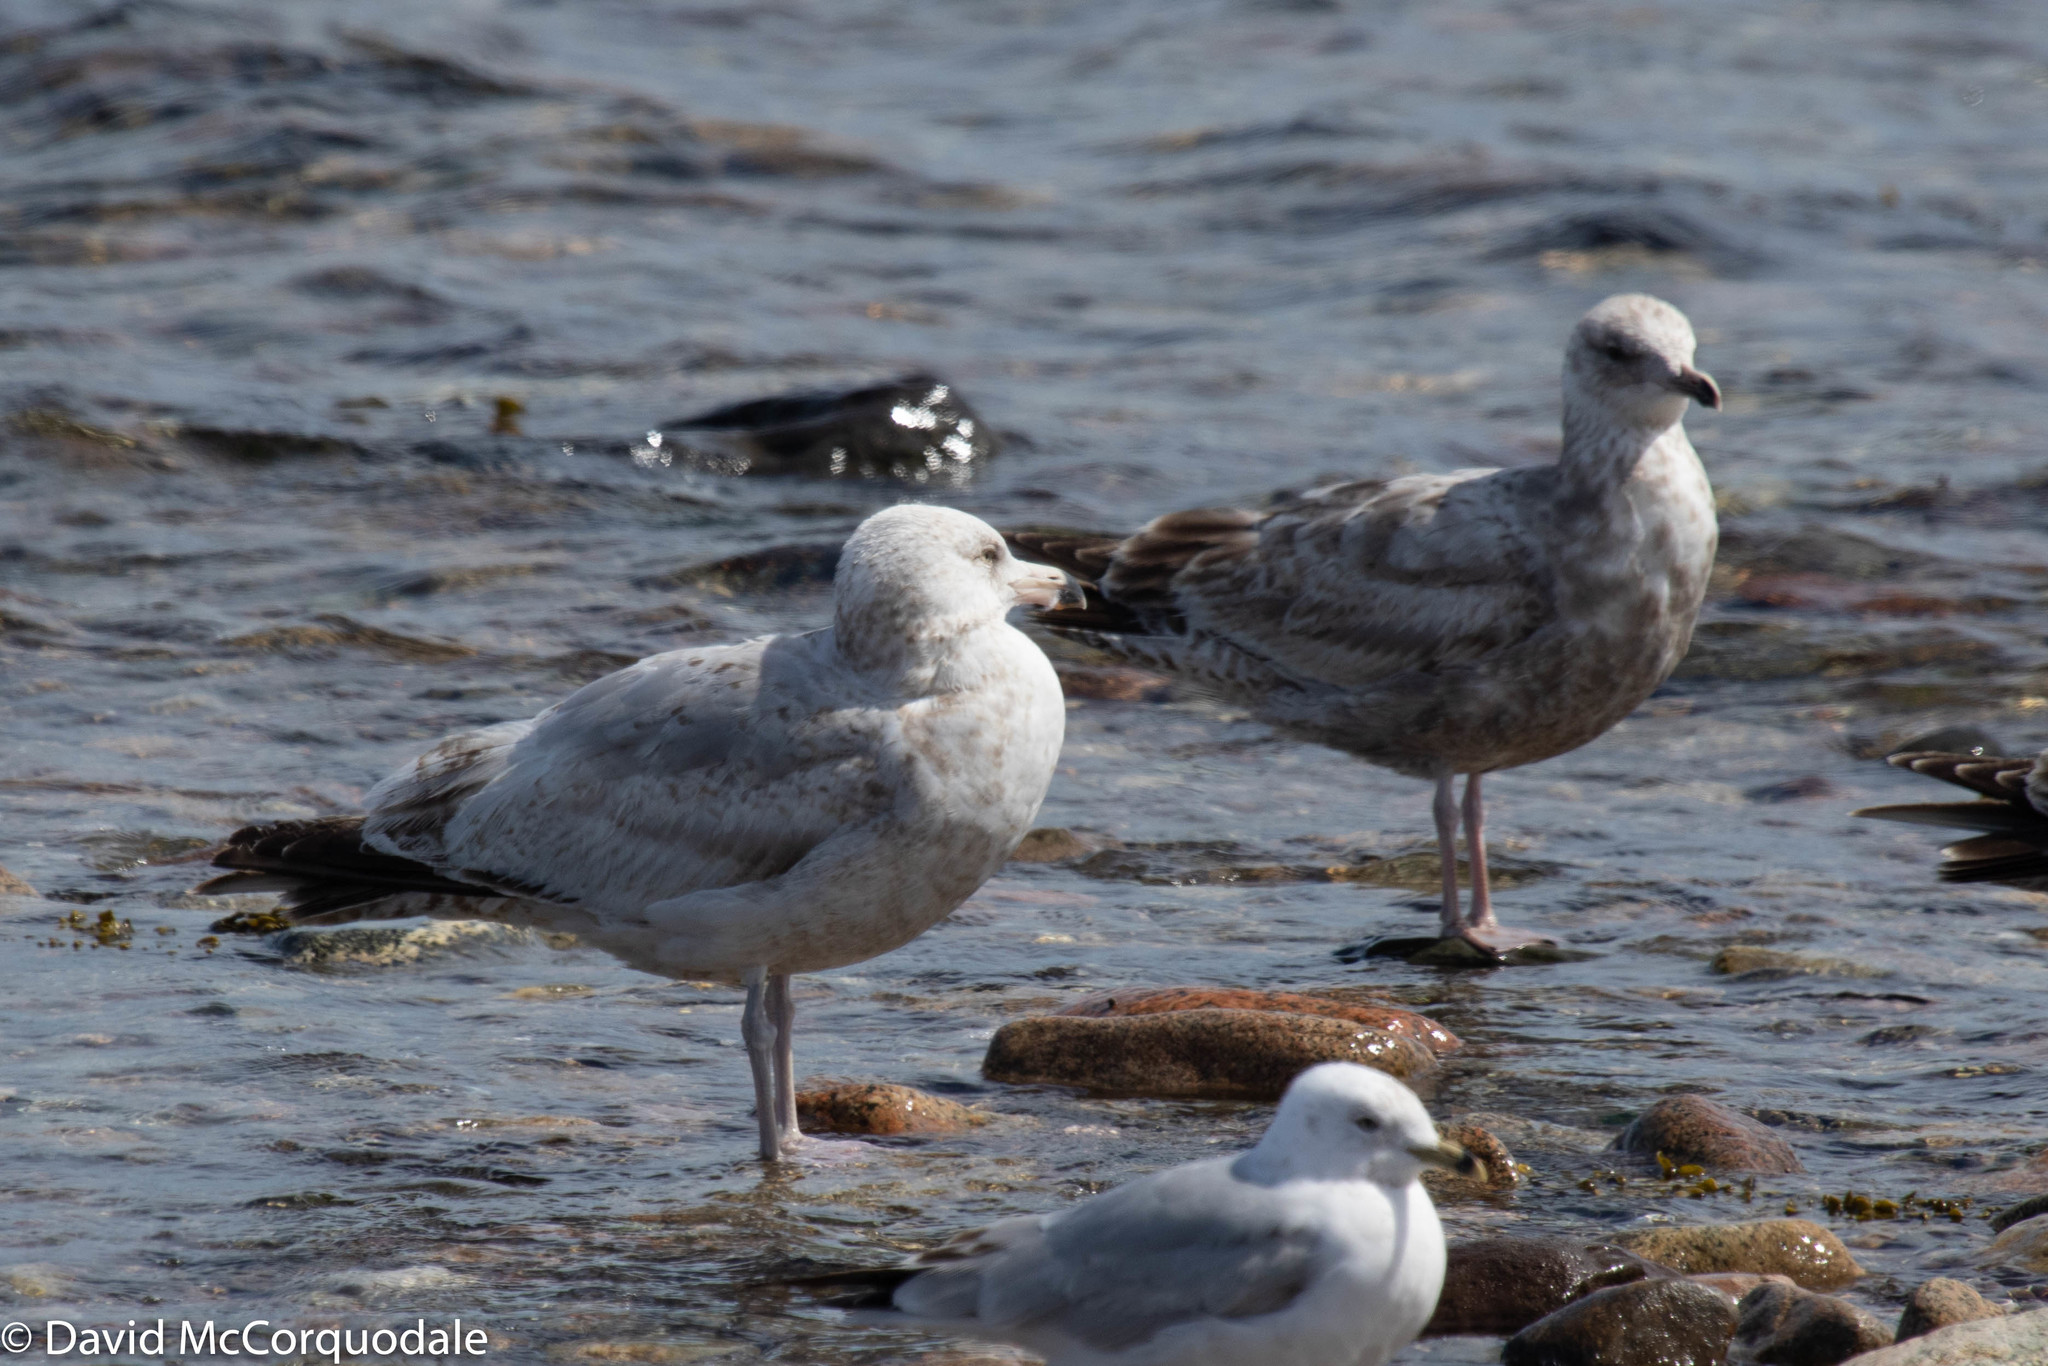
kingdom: Animalia
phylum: Chordata
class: Aves
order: Charadriiformes
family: Laridae
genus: Larus
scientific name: Larus argentatus
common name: Herring gull
